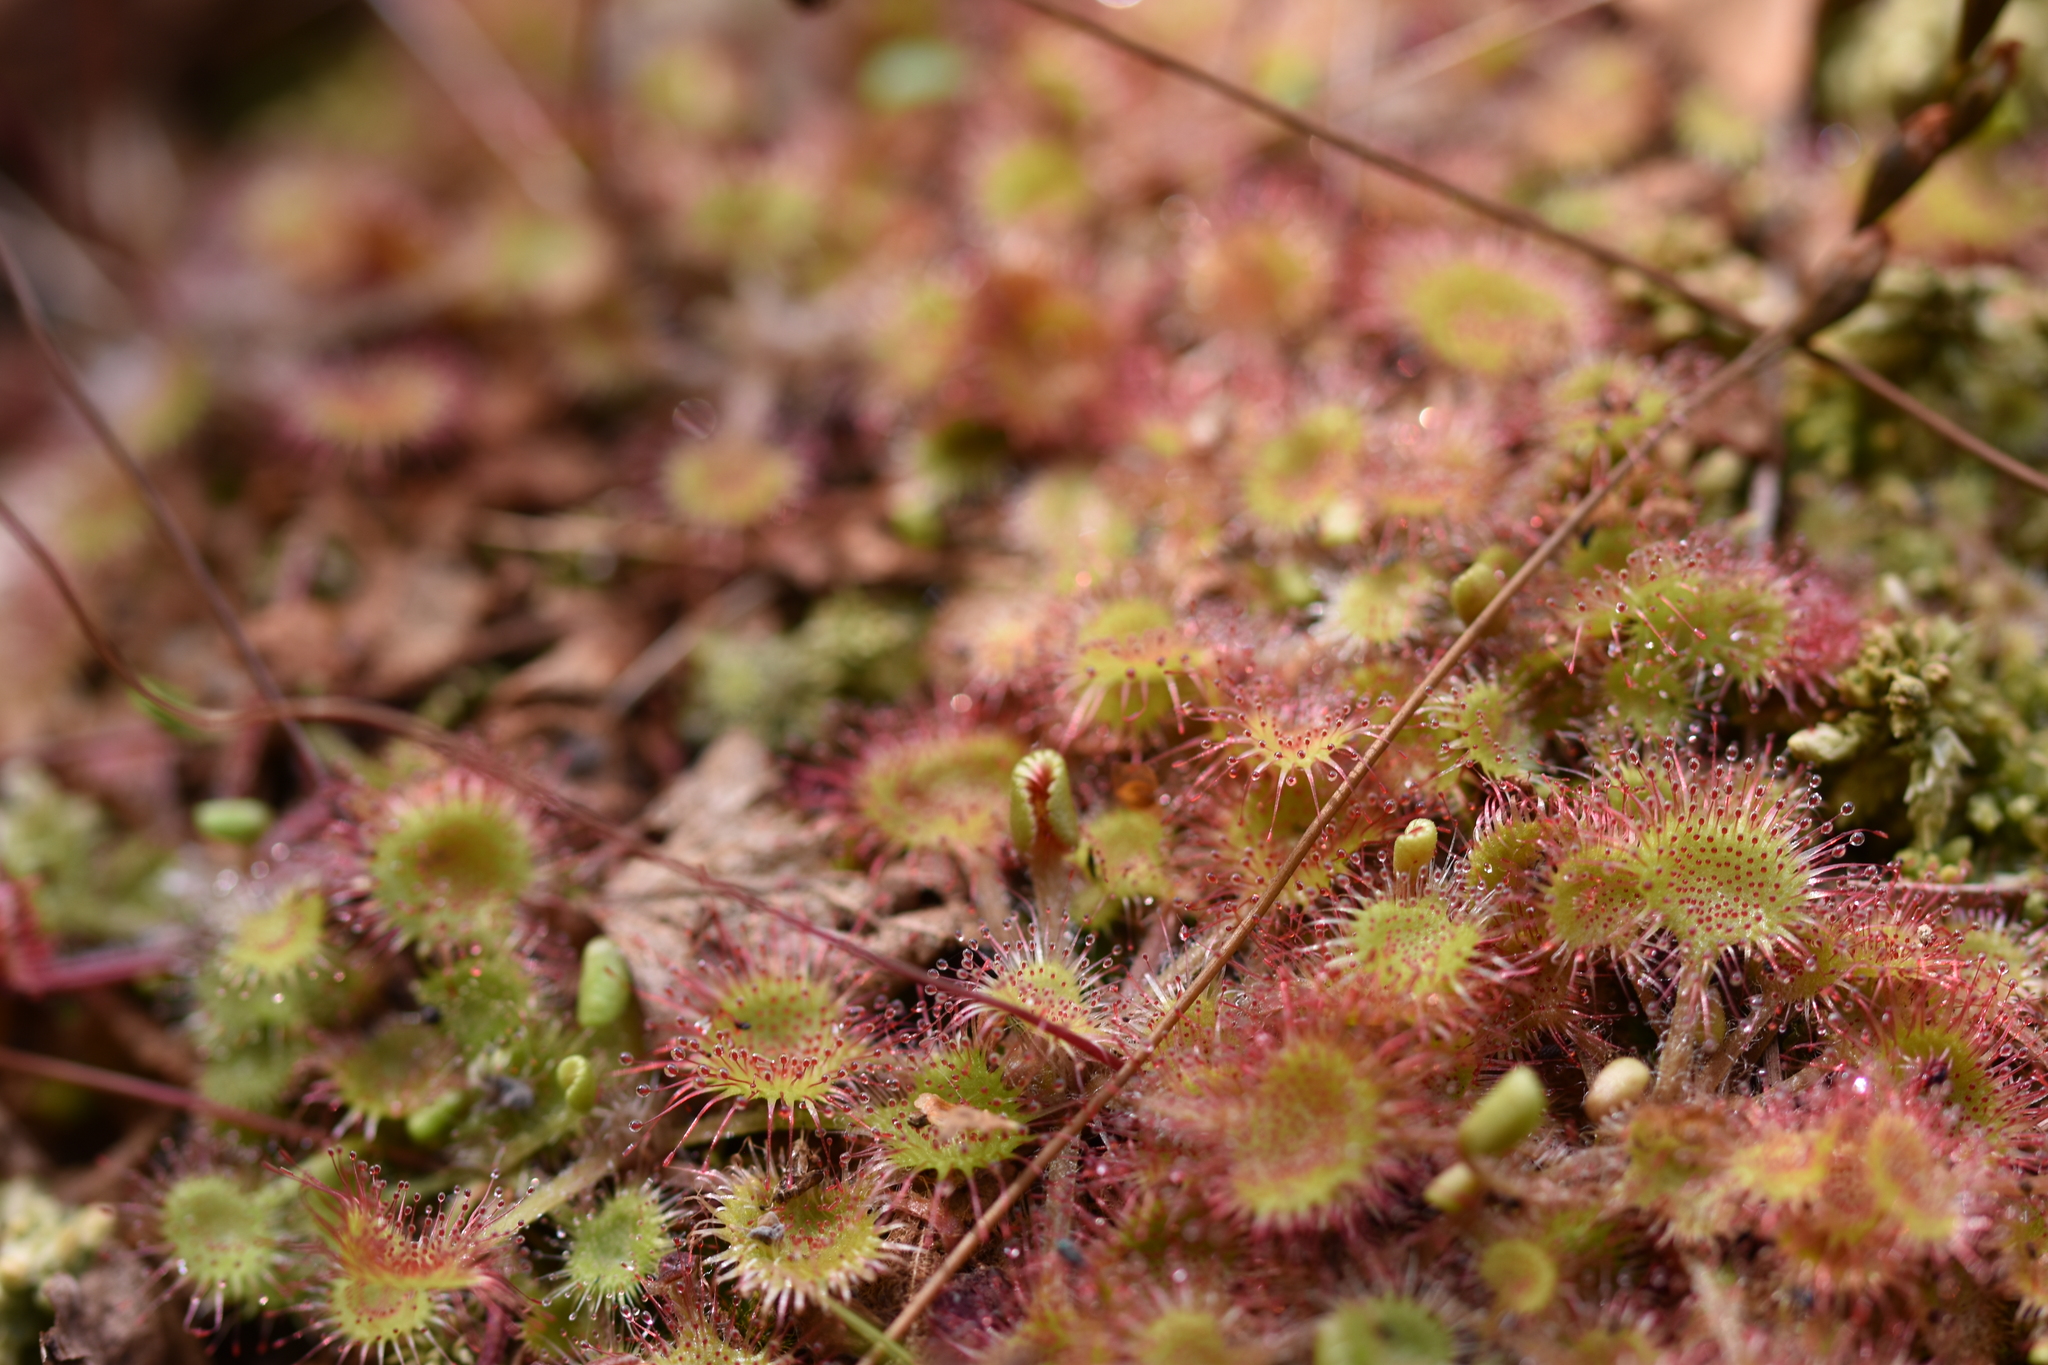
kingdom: Plantae
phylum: Tracheophyta
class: Magnoliopsida
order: Caryophyllales
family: Droseraceae
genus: Drosera
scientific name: Drosera rotundifolia
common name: Round-leaved sundew
